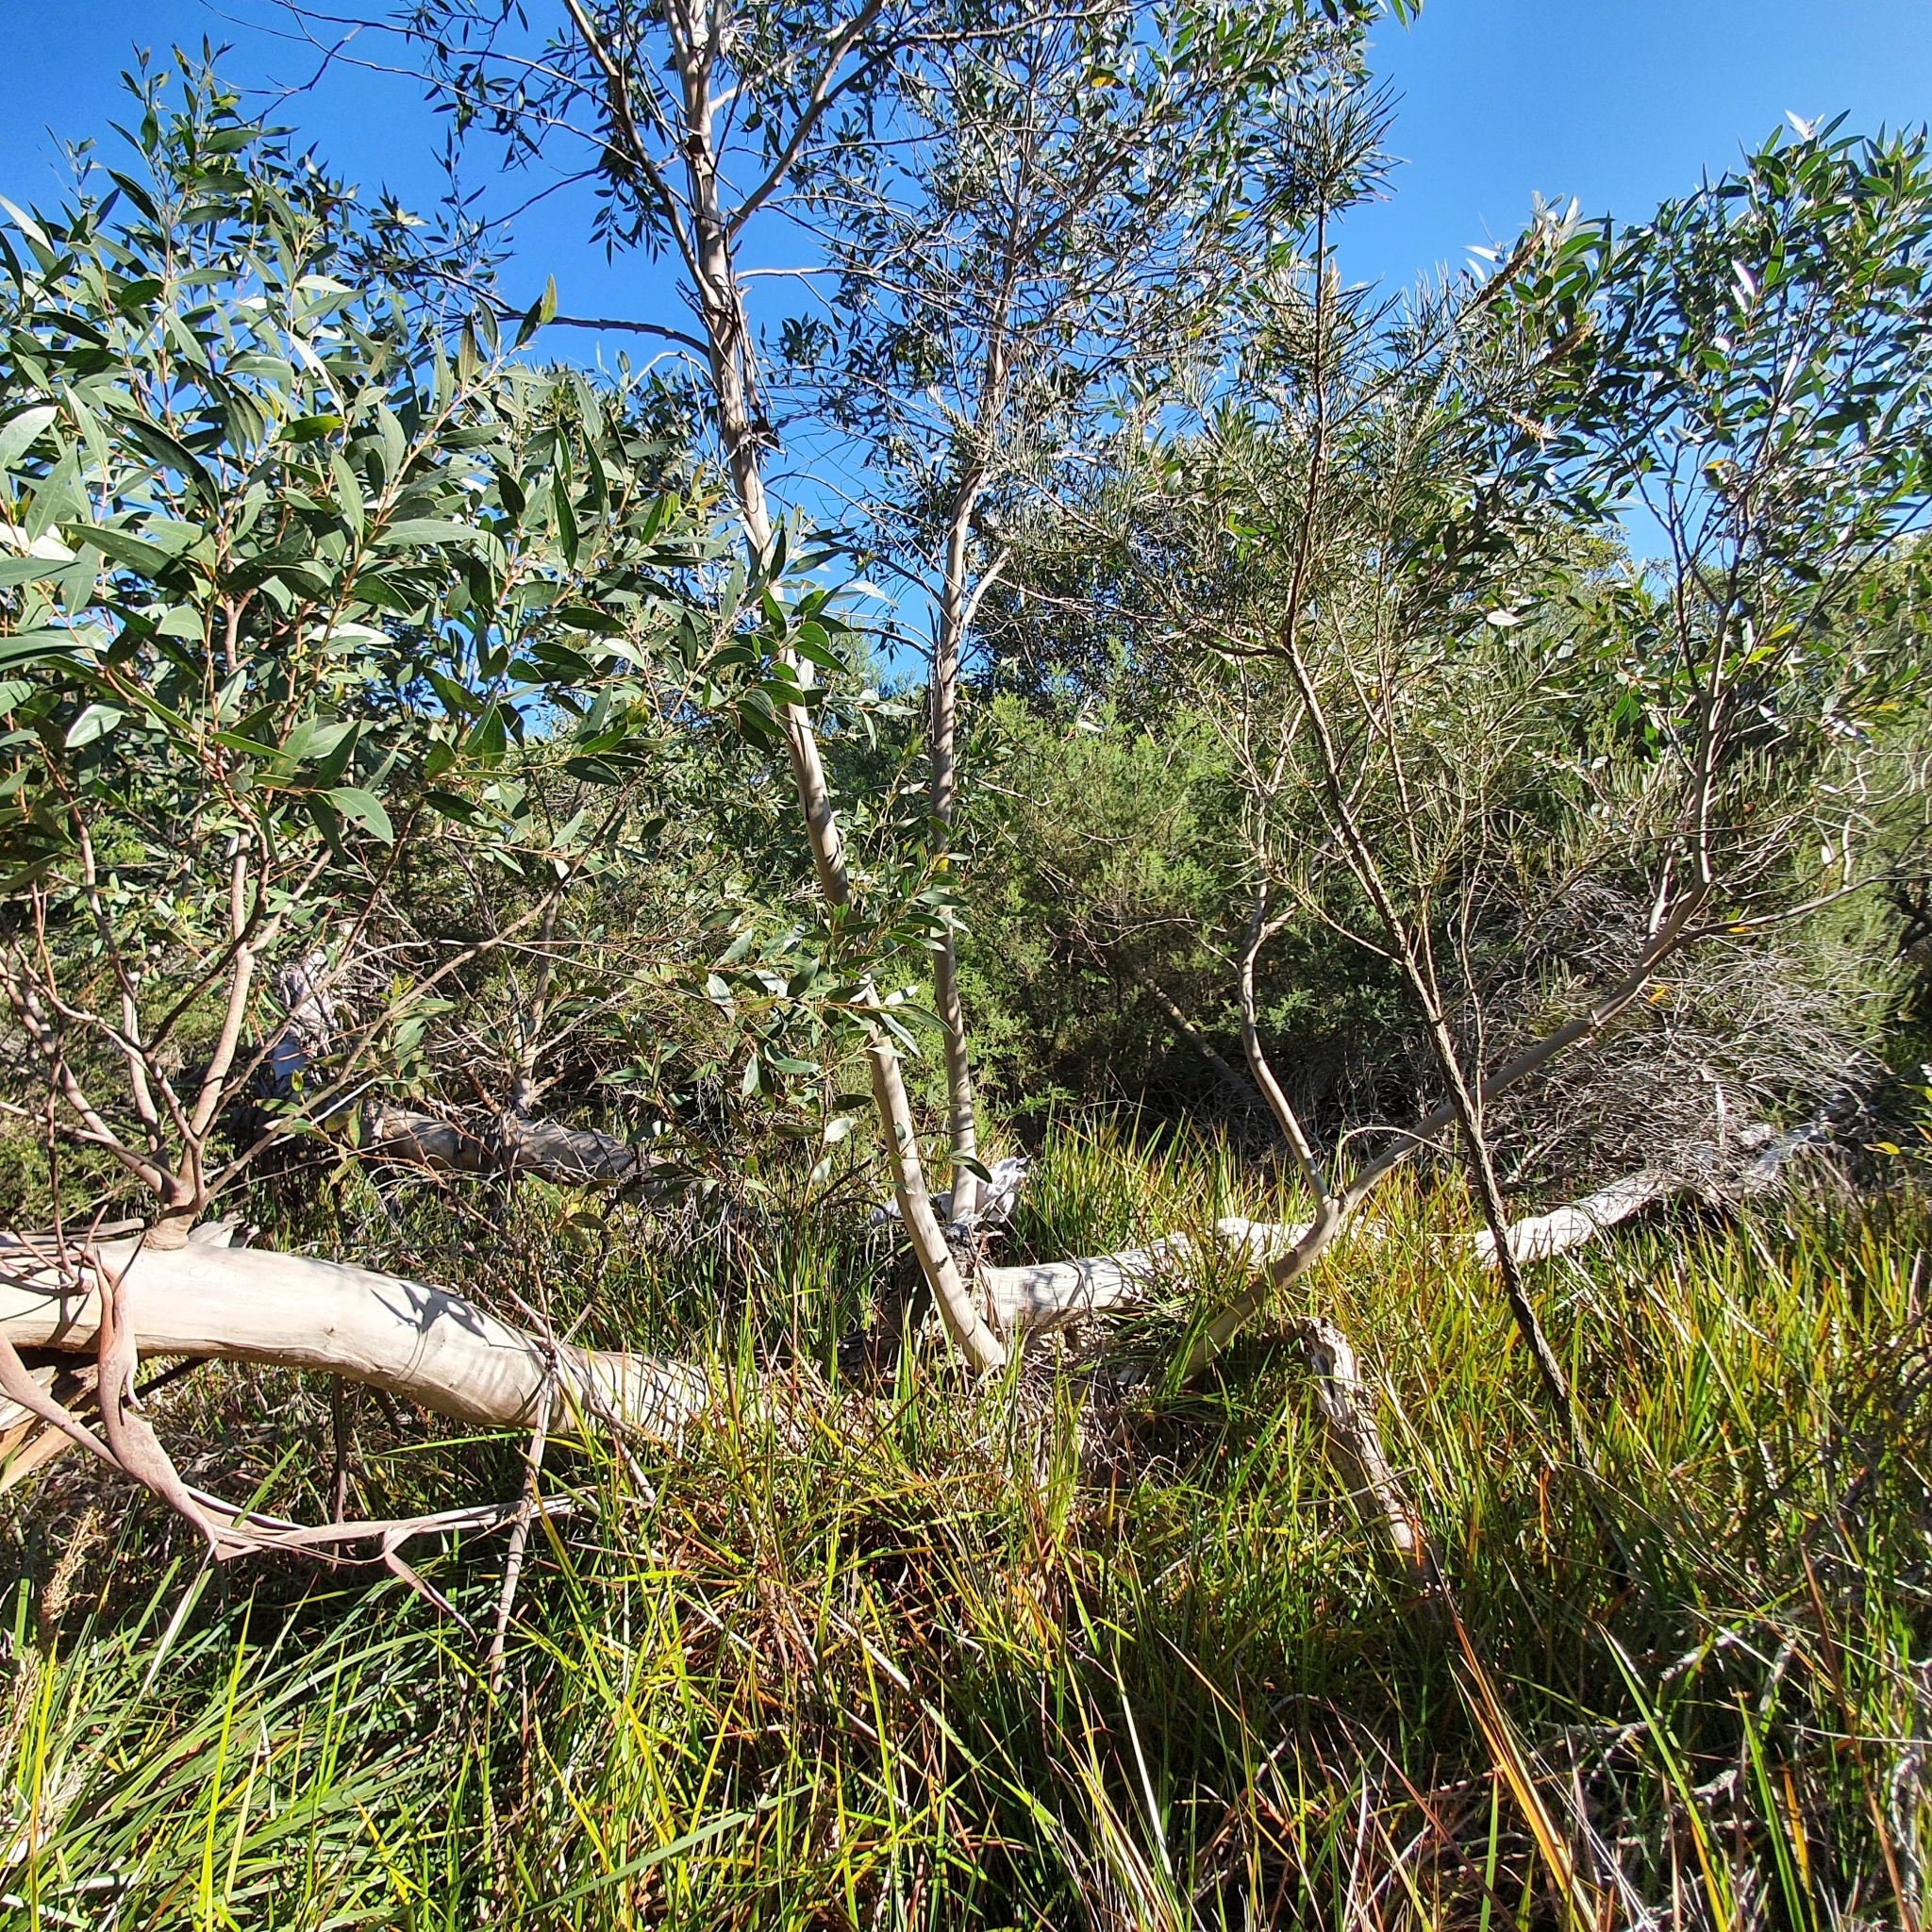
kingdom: Plantae
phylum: Tracheophyta
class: Magnoliopsida
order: Myrtales
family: Myrtaceae
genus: Eucalyptus
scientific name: Eucalyptus burgessiana
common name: Falconbridge mallee-ash
